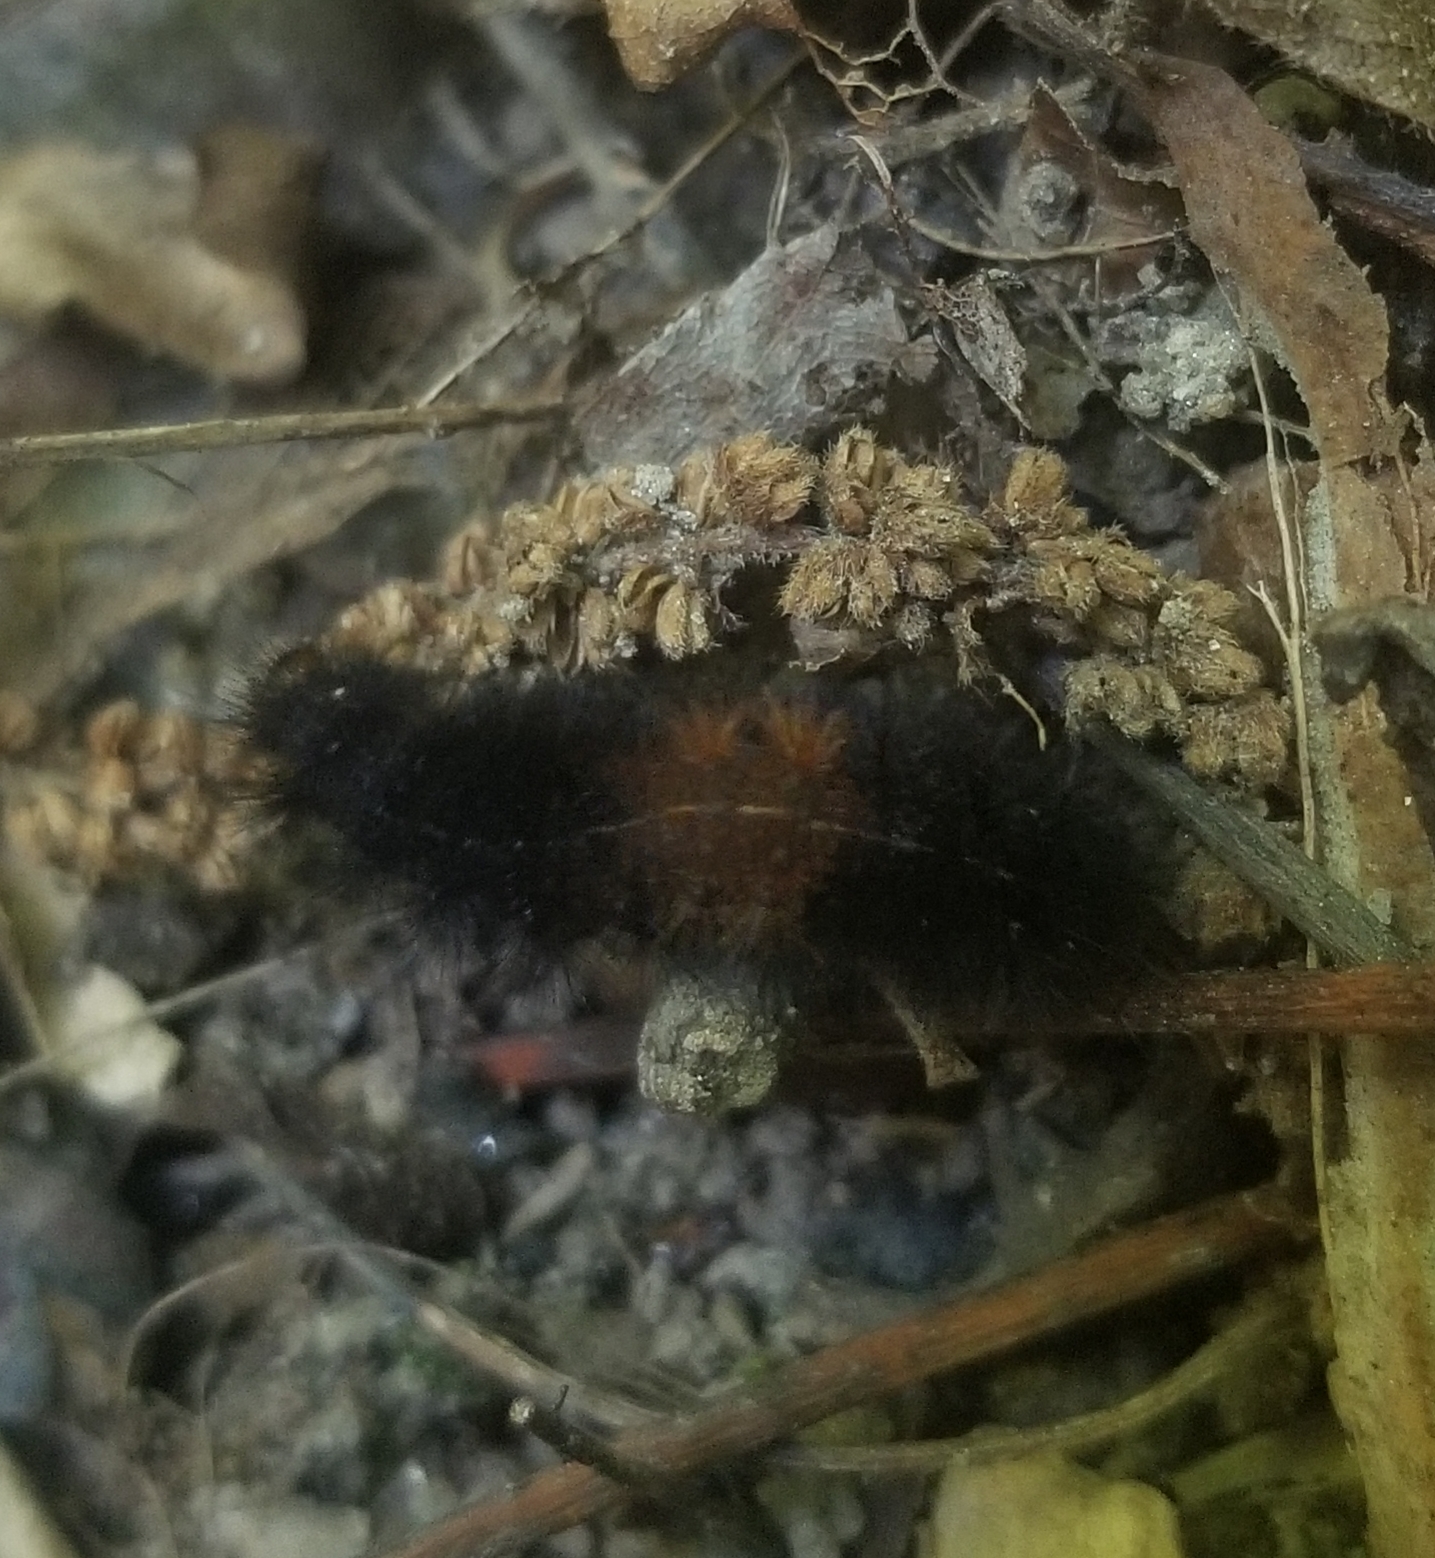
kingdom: Animalia
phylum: Arthropoda
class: Insecta
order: Lepidoptera
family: Erebidae
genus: Pyrrharctia
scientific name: Pyrrharctia isabella
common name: Isabella tiger moth
